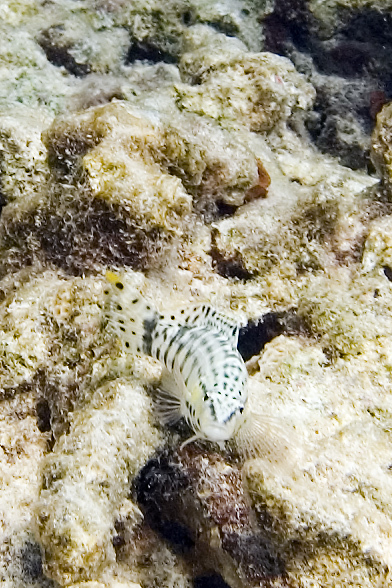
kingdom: Animalia
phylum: Chordata
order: Perciformes
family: Serranidae
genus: Serranus
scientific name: Serranus tigrinus
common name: Harlequin bass
